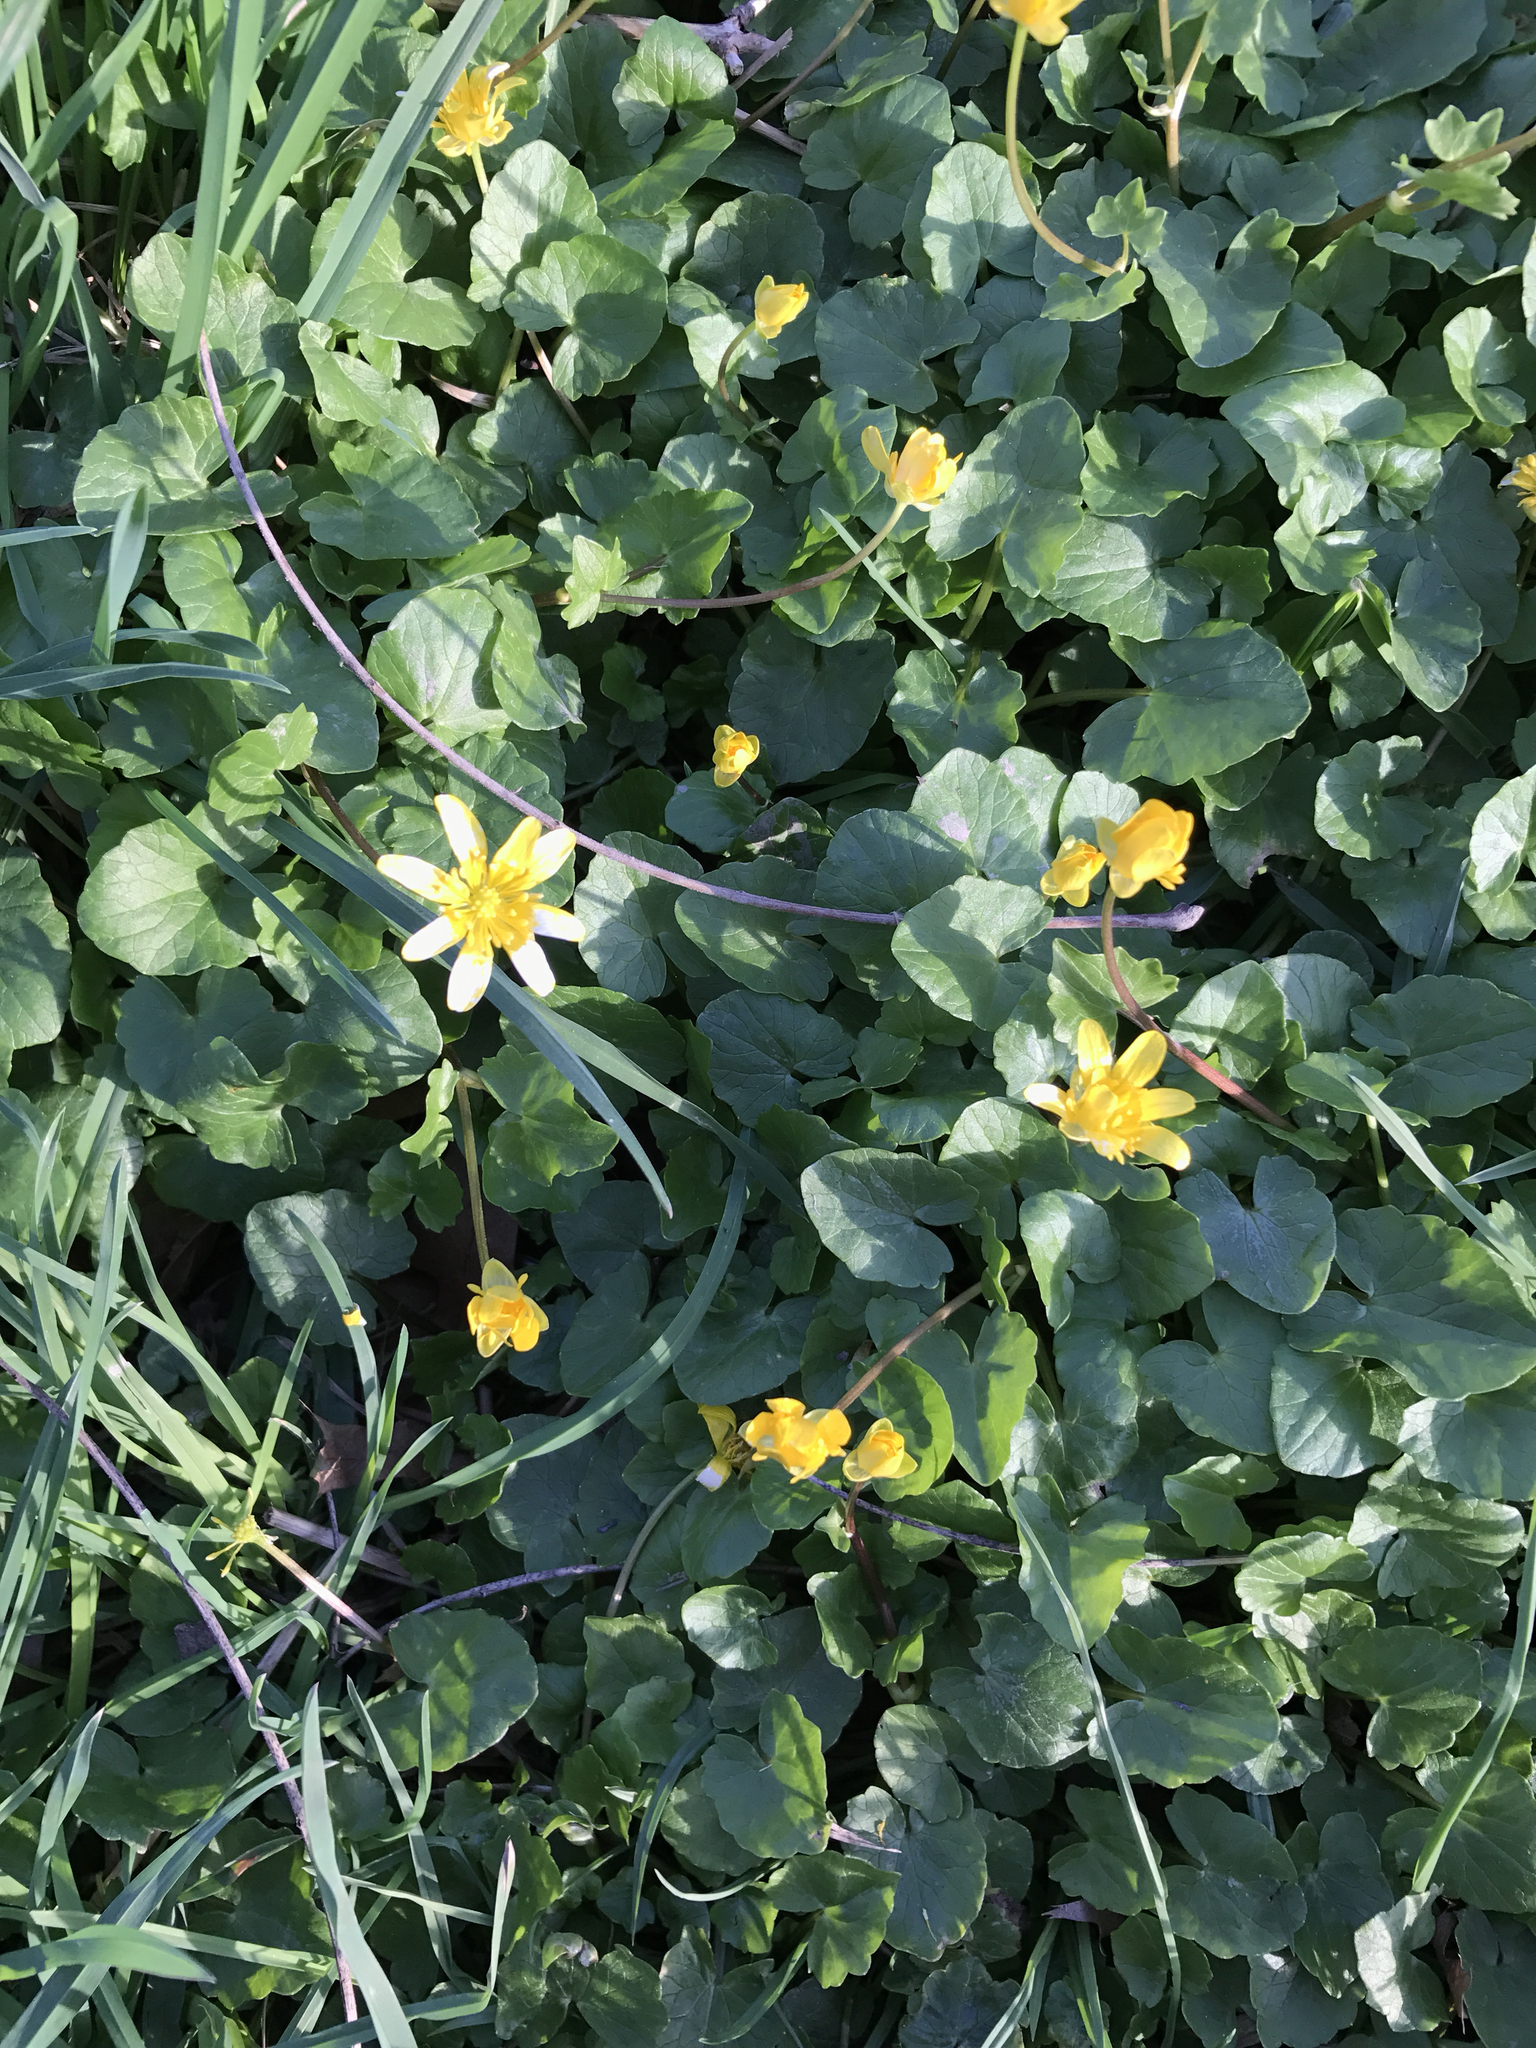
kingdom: Plantae
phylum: Tracheophyta
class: Magnoliopsida
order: Ranunculales
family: Ranunculaceae
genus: Ficaria
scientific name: Ficaria verna
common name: Lesser celandine
